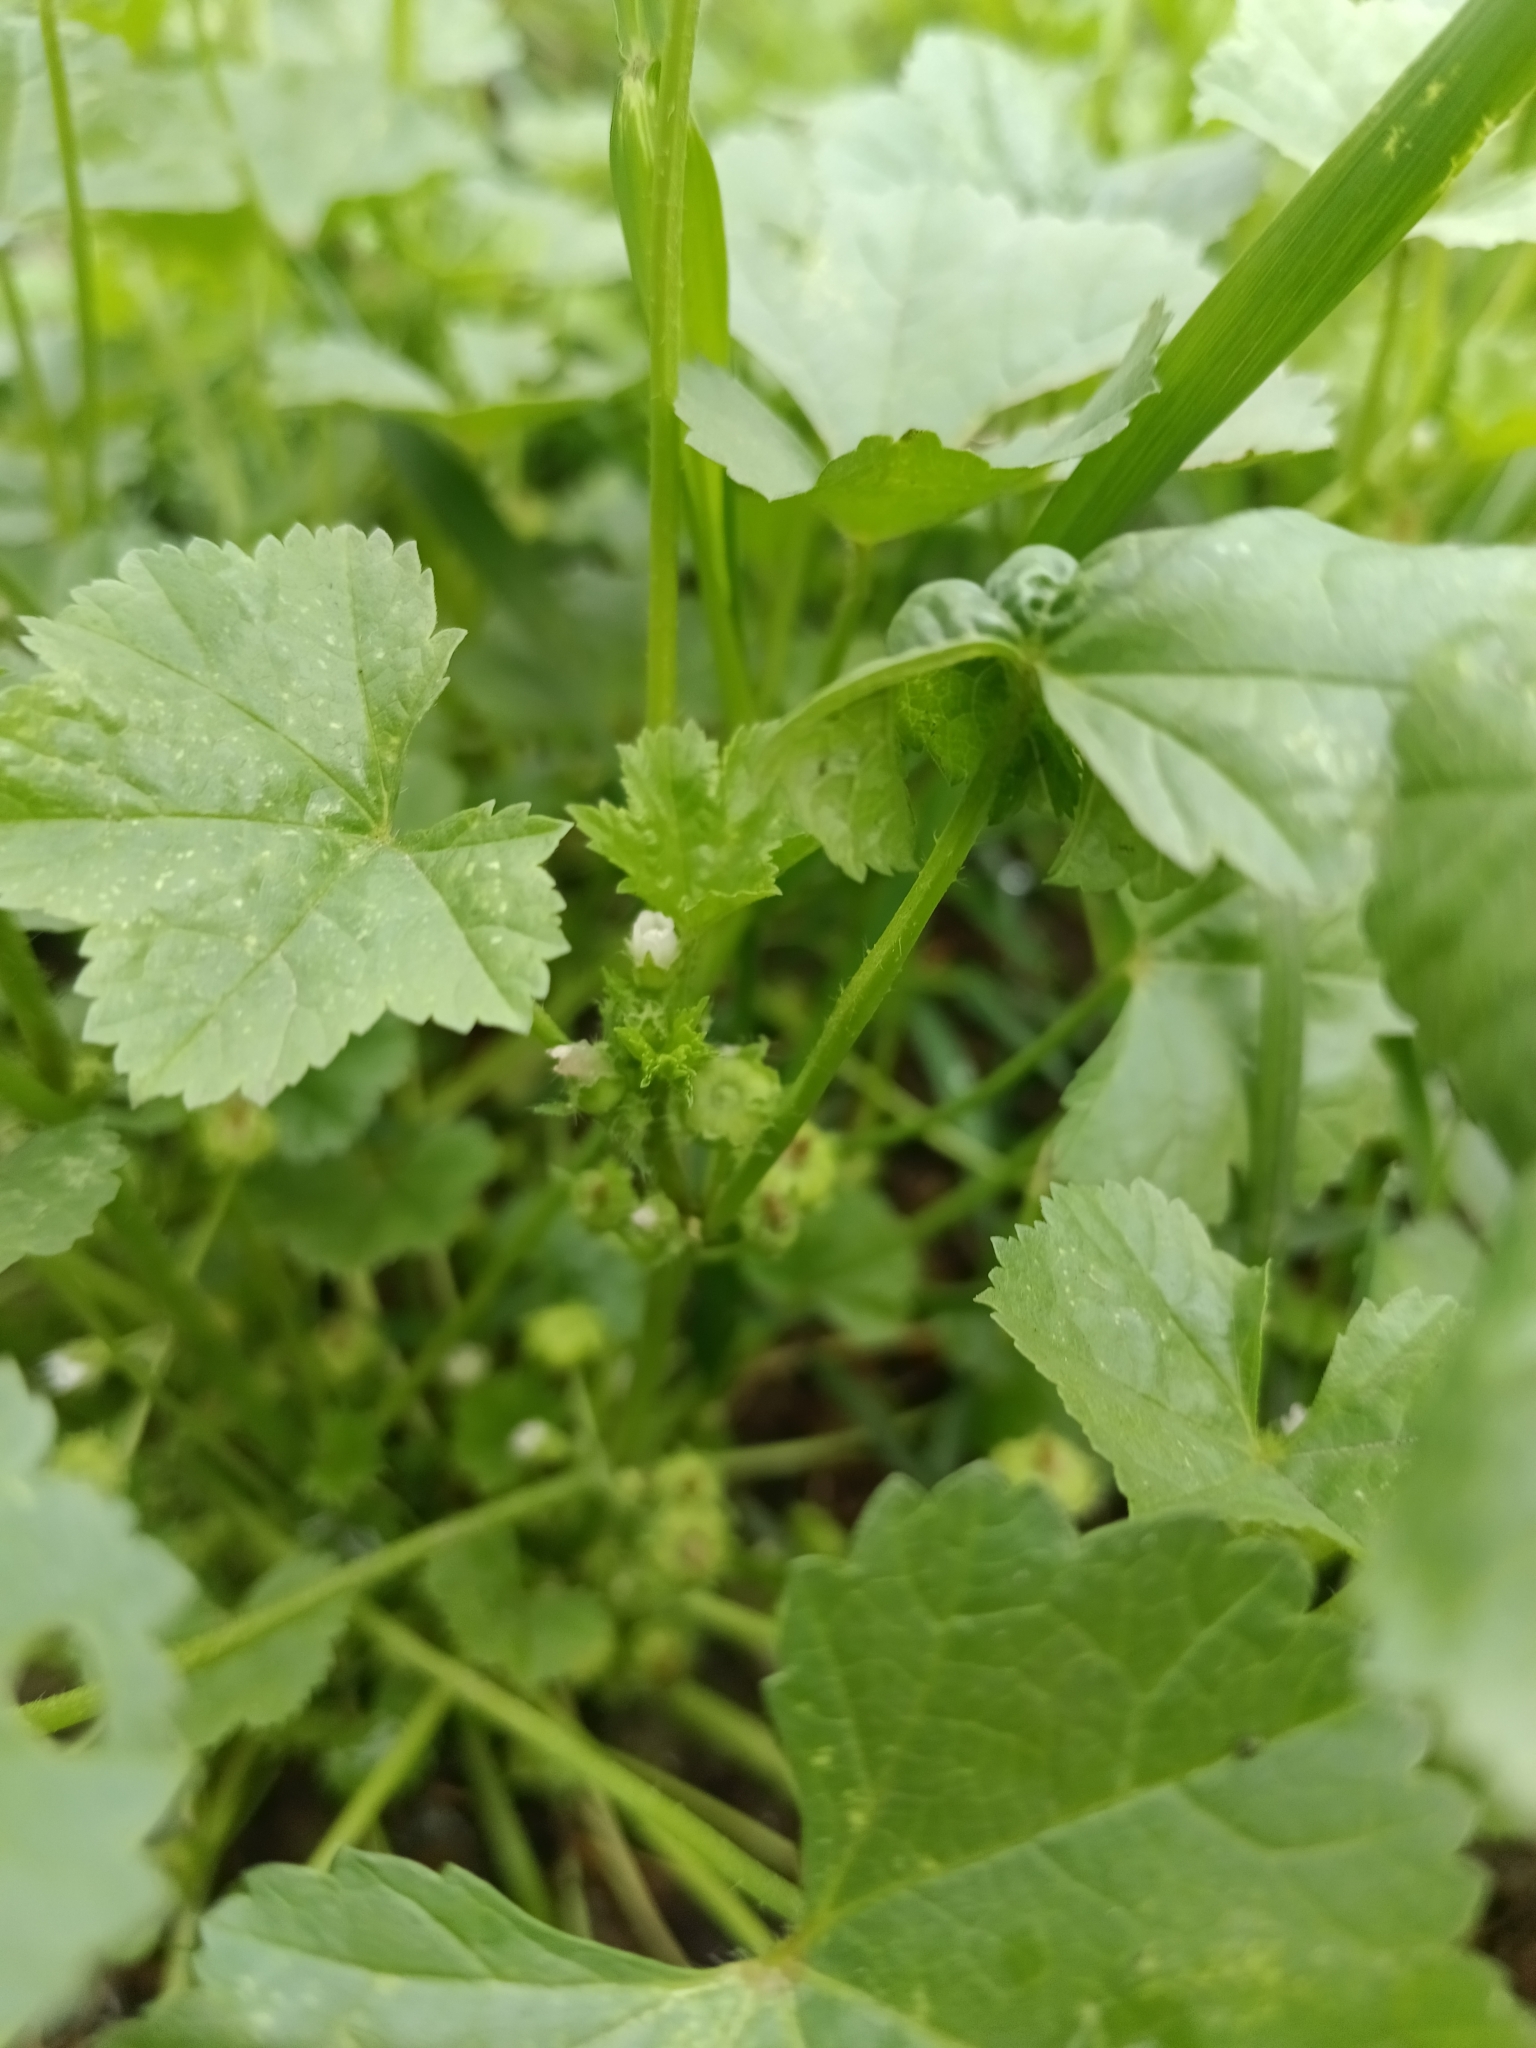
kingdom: Plantae
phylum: Tracheophyta
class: Magnoliopsida
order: Malvales
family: Malvaceae
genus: Malva
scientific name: Malva pusilla
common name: Small mallow
